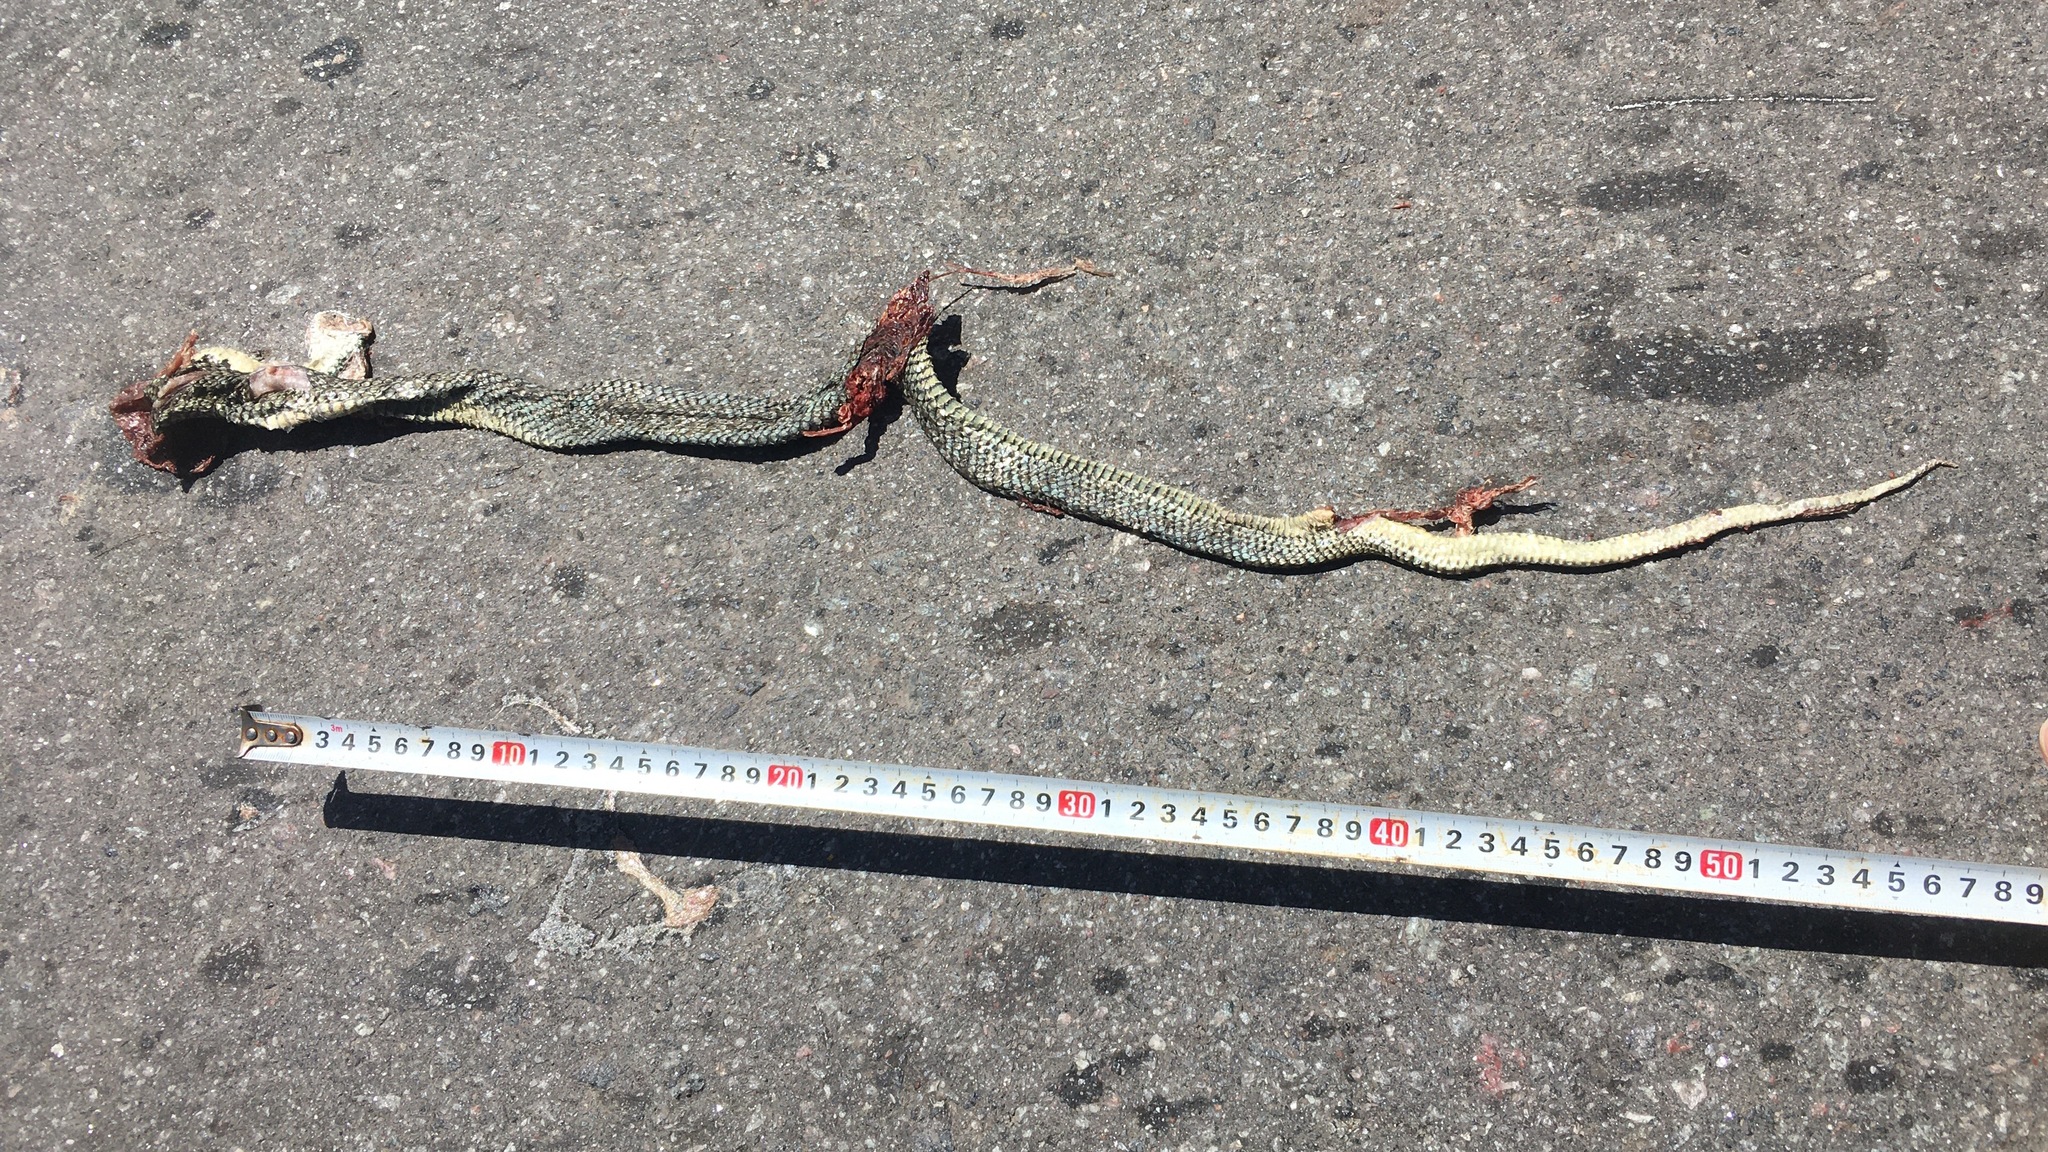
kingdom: Animalia
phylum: Chordata
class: Squamata
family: Colubridae
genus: Philodryas
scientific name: Philodryas patagoniensis
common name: Patagonia green racer
